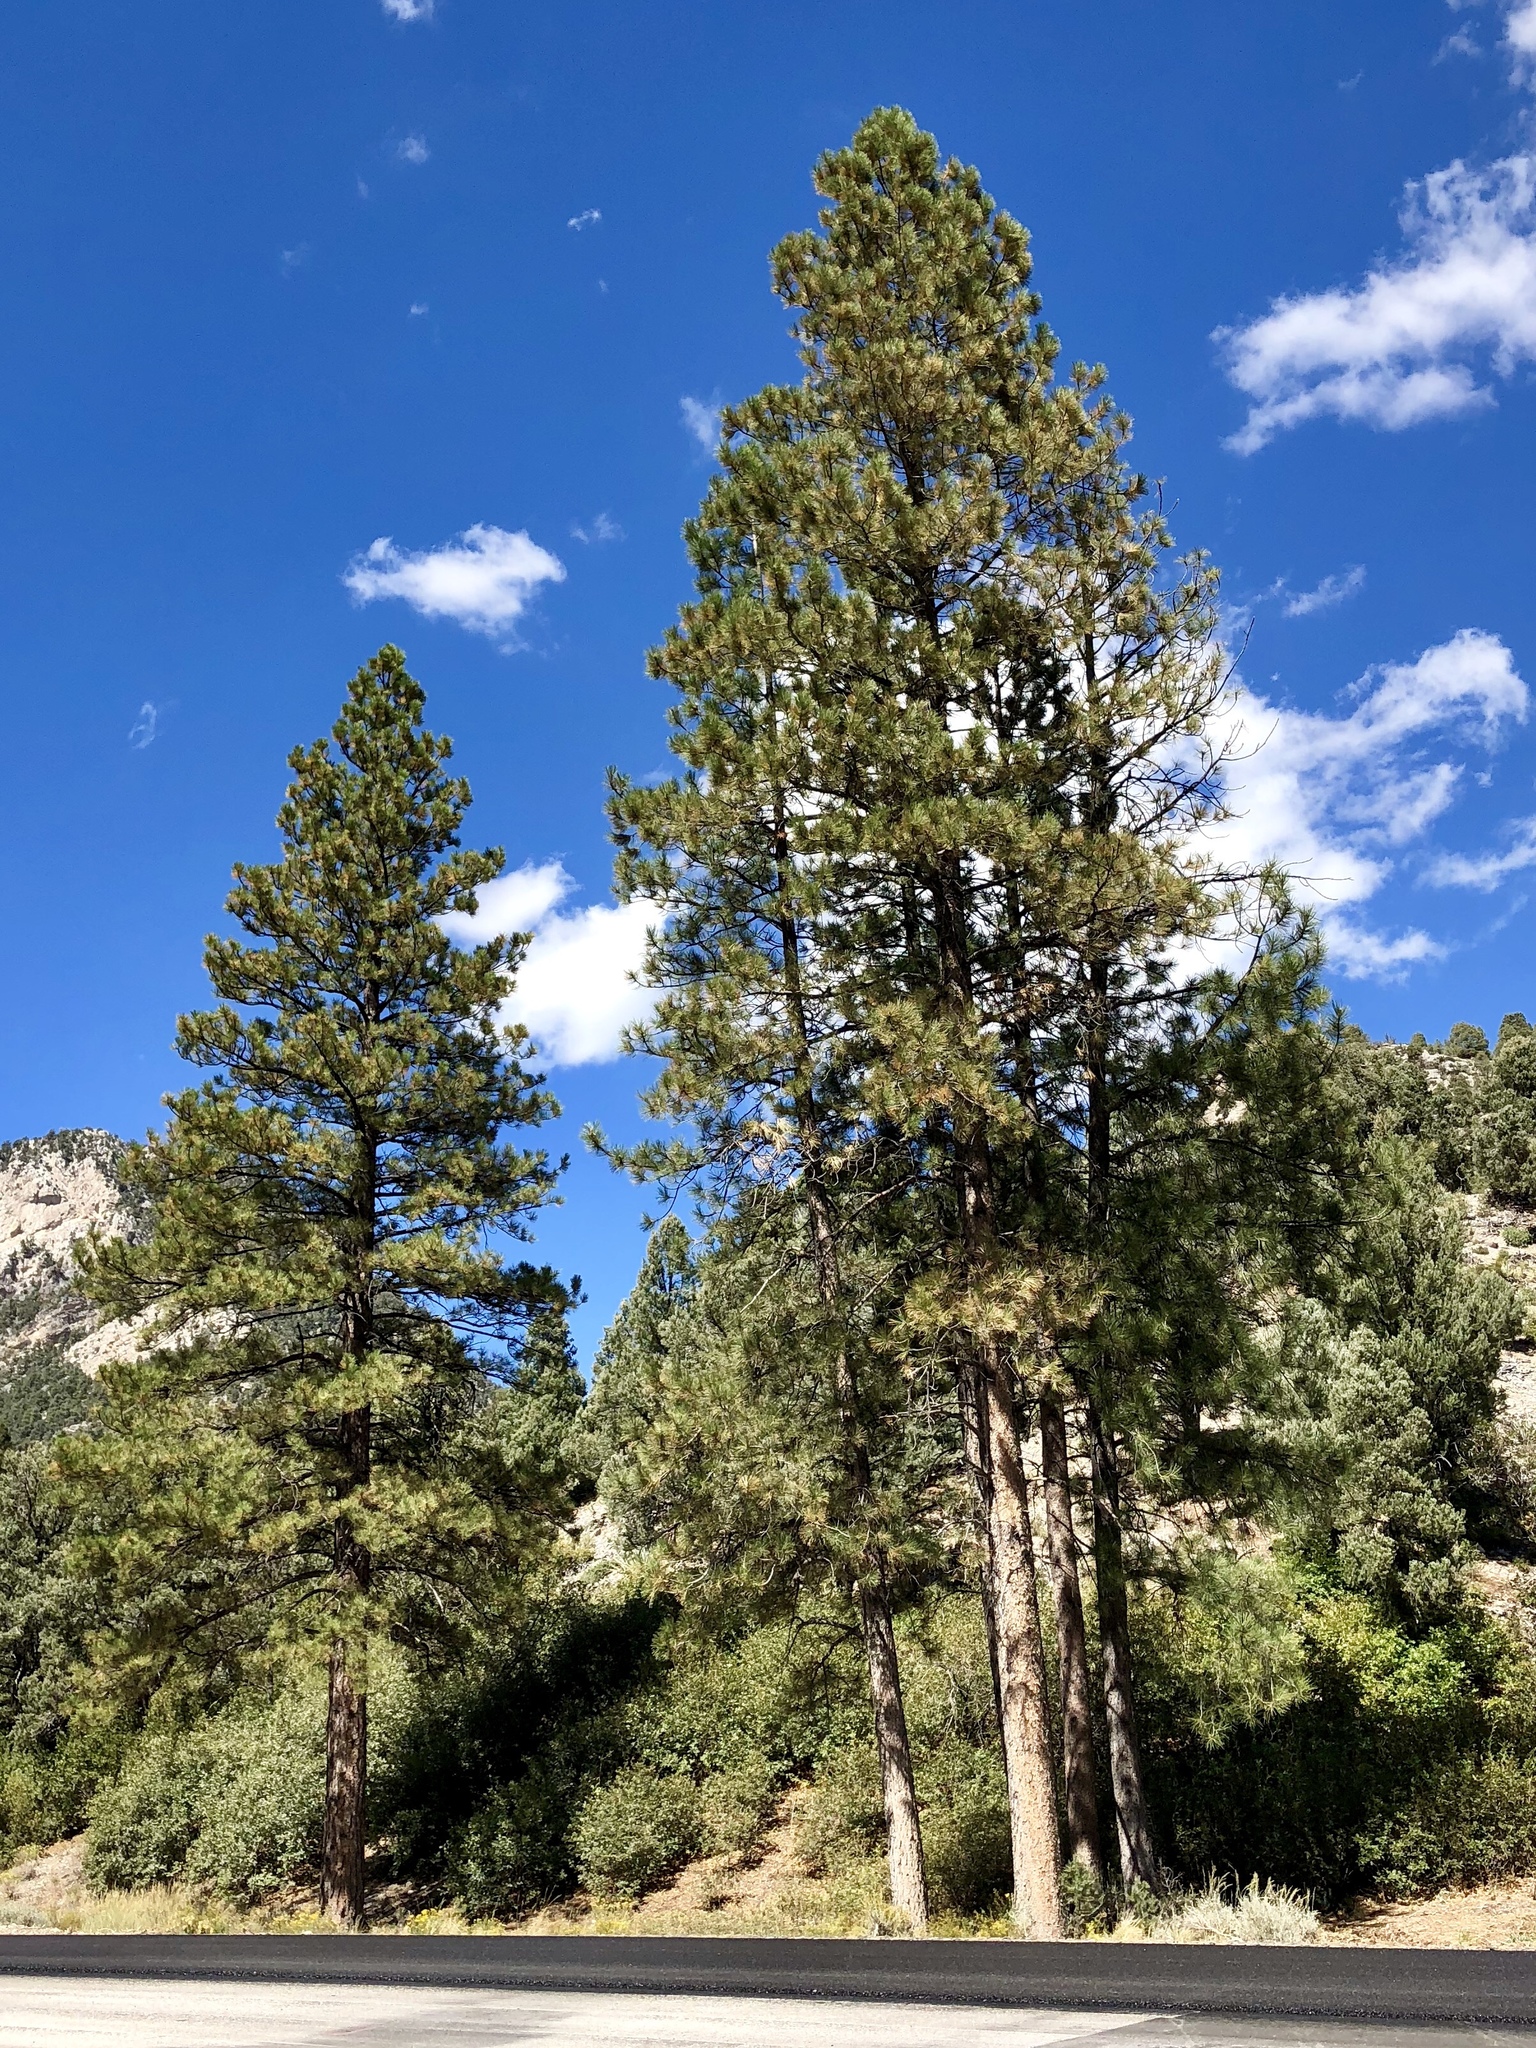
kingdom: Plantae
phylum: Tracheophyta
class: Pinopsida
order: Pinales
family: Pinaceae
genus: Pinus
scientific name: Pinus ponderosa
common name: Western yellow-pine
